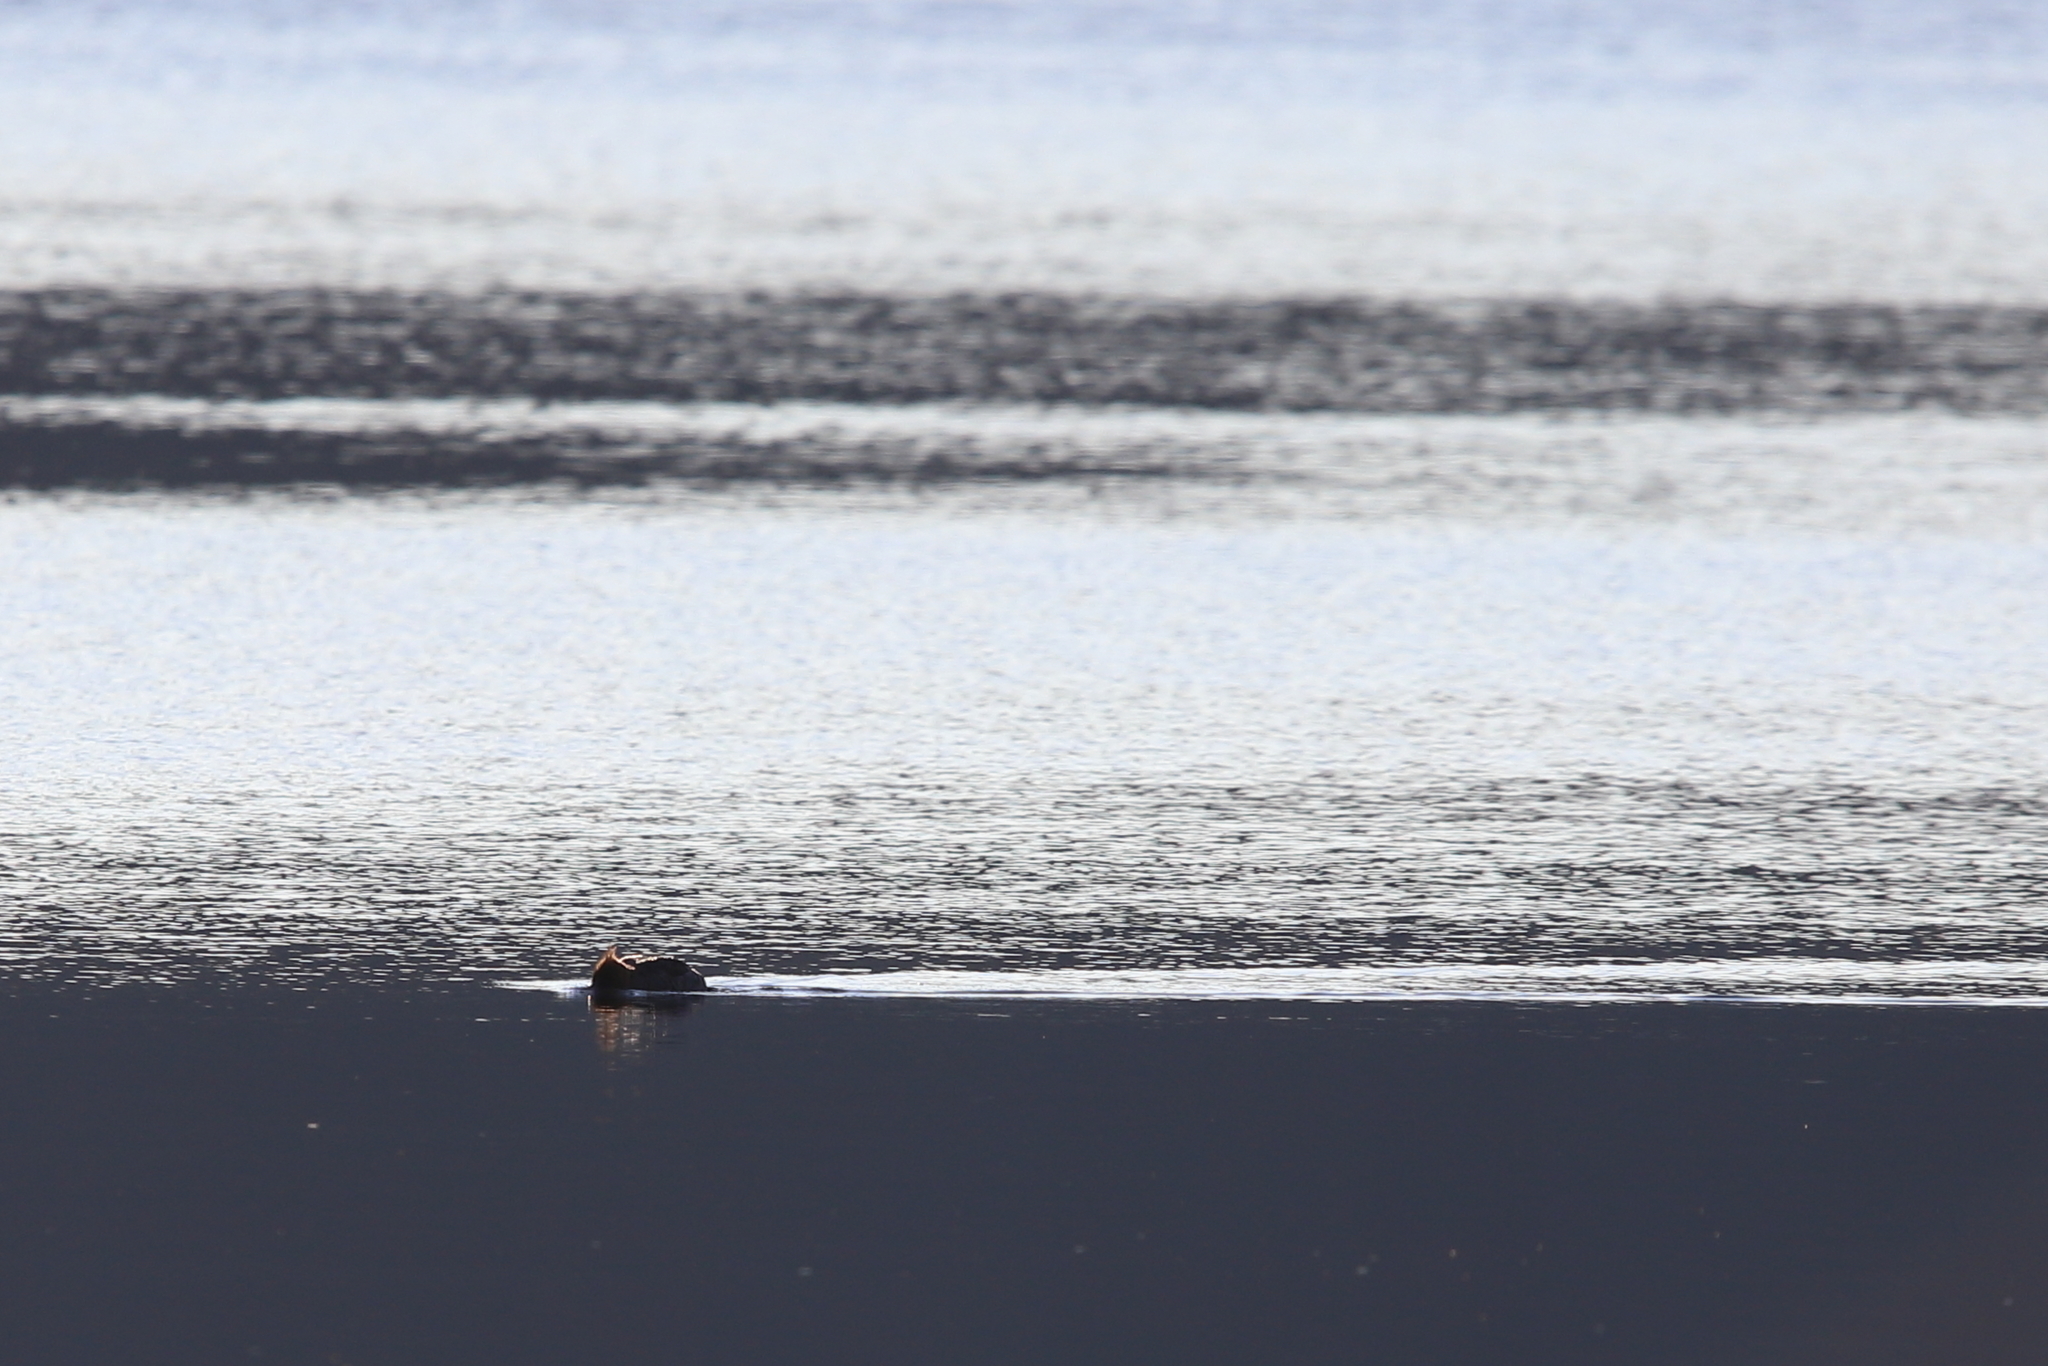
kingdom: Animalia
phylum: Chordata
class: Aves
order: Anseriformes
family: Anatidae
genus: Mergus
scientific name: Mergus serrator
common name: Red-breasted merganser
